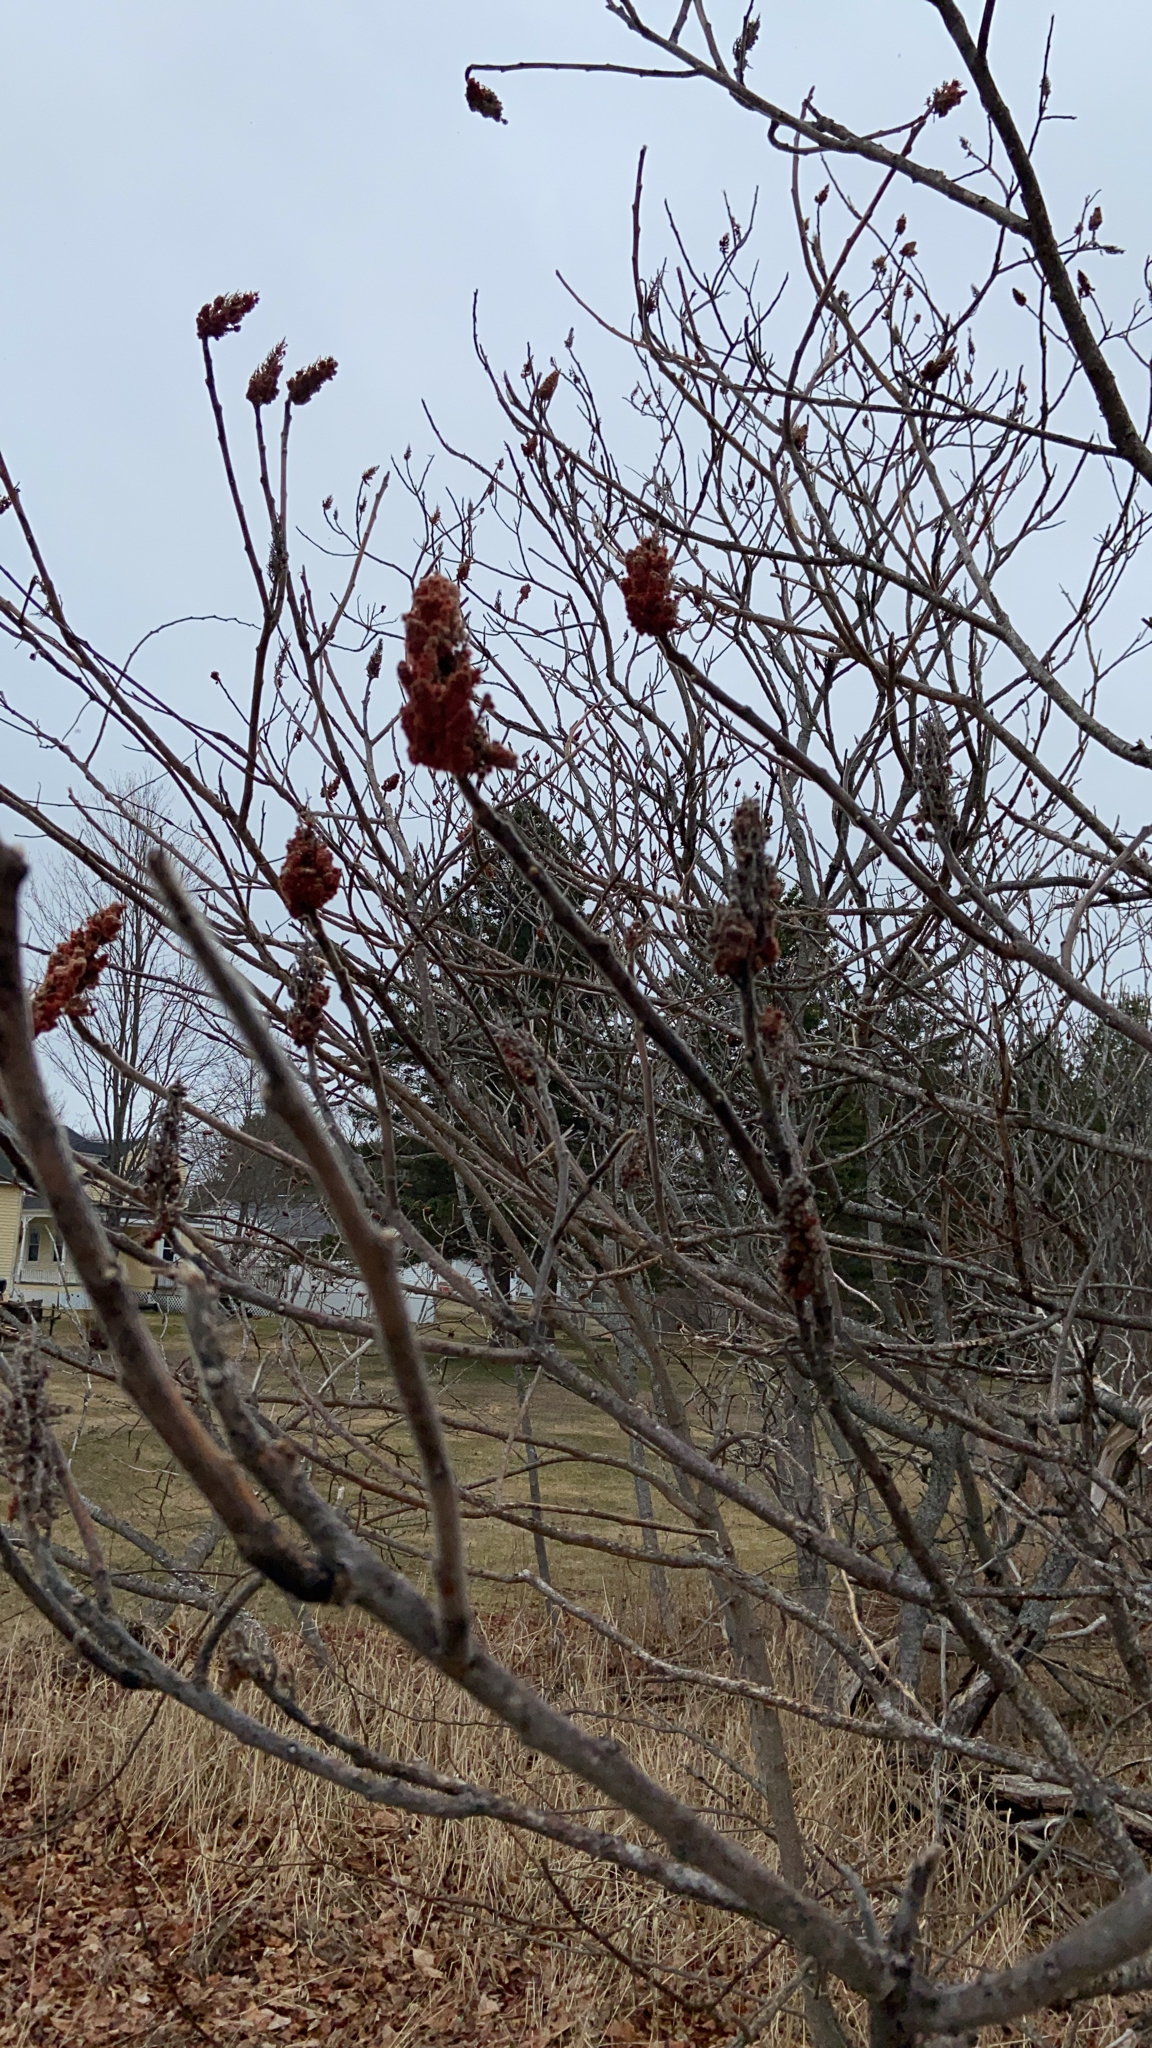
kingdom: Plantae
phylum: Tracheophyta
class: Magnoliopsida
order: Sapindales
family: Anacardiaceae
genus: Rhus
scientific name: Rhus typhina
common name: Staghorn sumac
